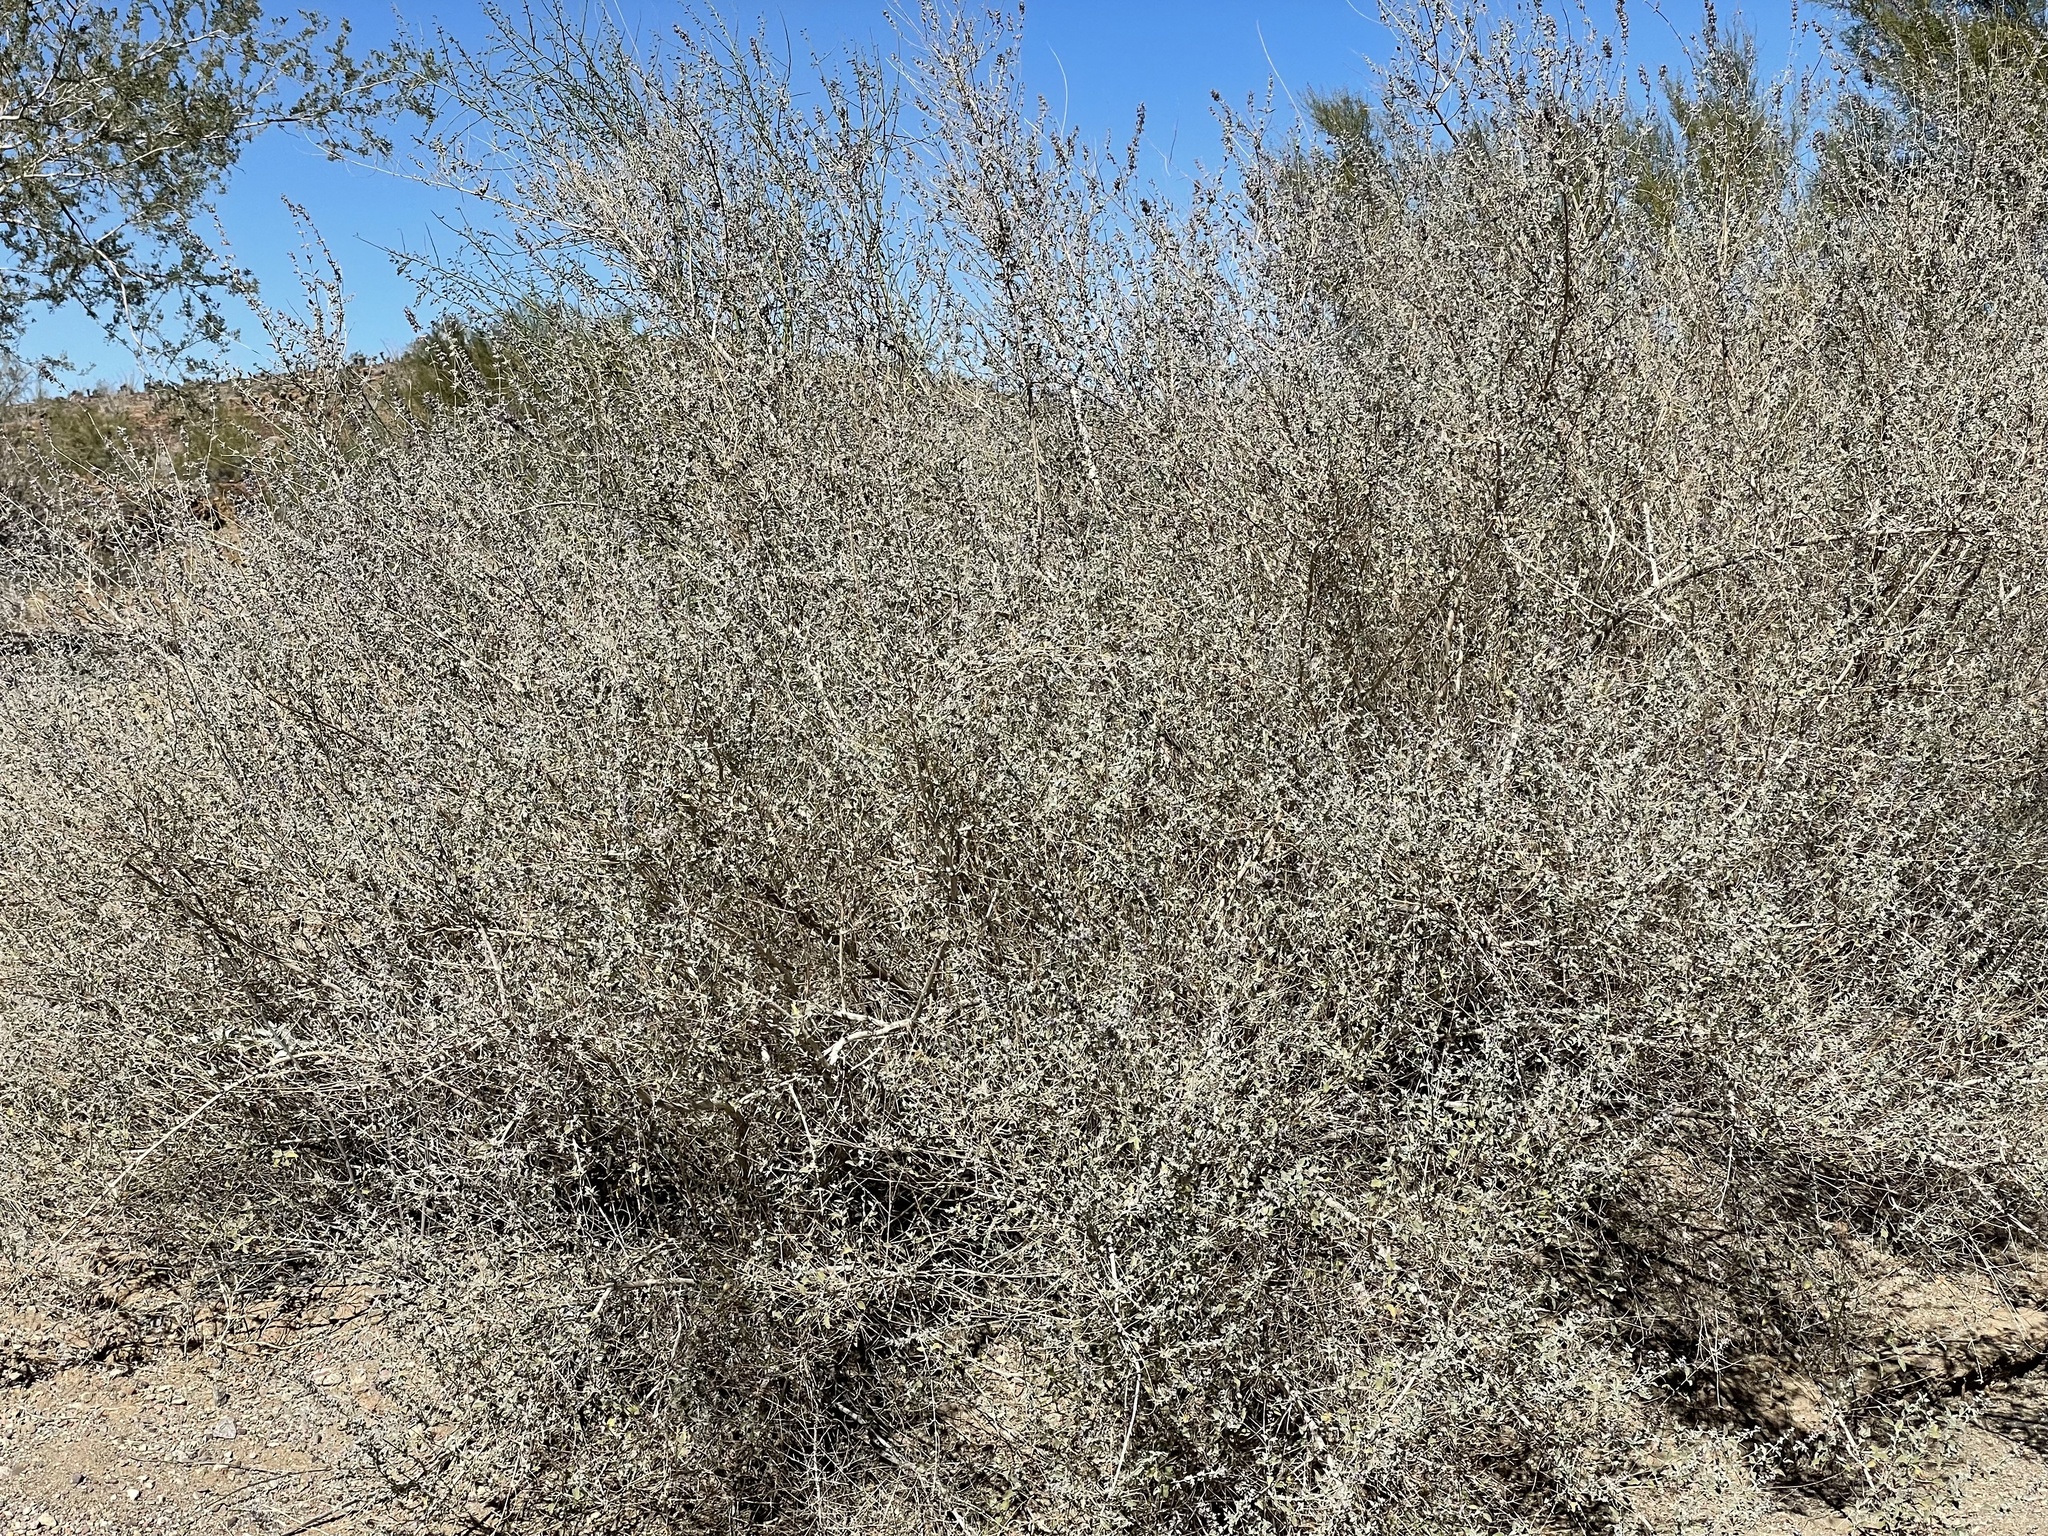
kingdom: Plantae
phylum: Tracheophyta
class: Magnoliopsida
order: Lamiales
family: Lamiaceae
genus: Condea
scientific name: Condea emoryi
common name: Chia
